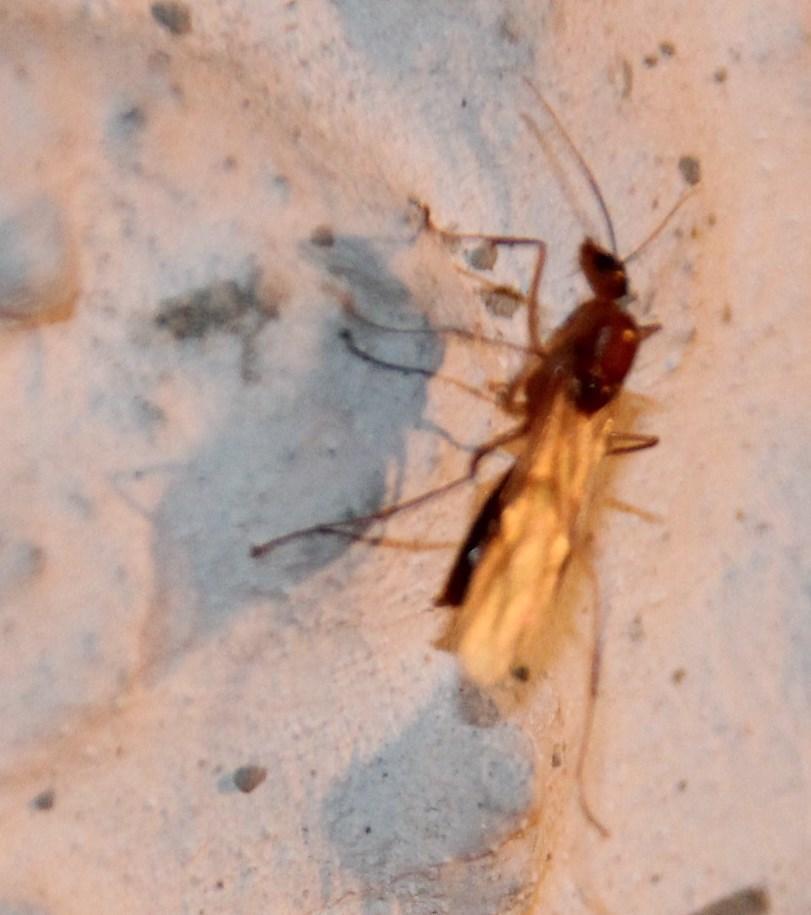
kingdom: Animalia
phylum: Arthropoda
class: Insecta
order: Hymenoptera
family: Formicidae
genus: Camponotus
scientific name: Camponotus mystaceus
